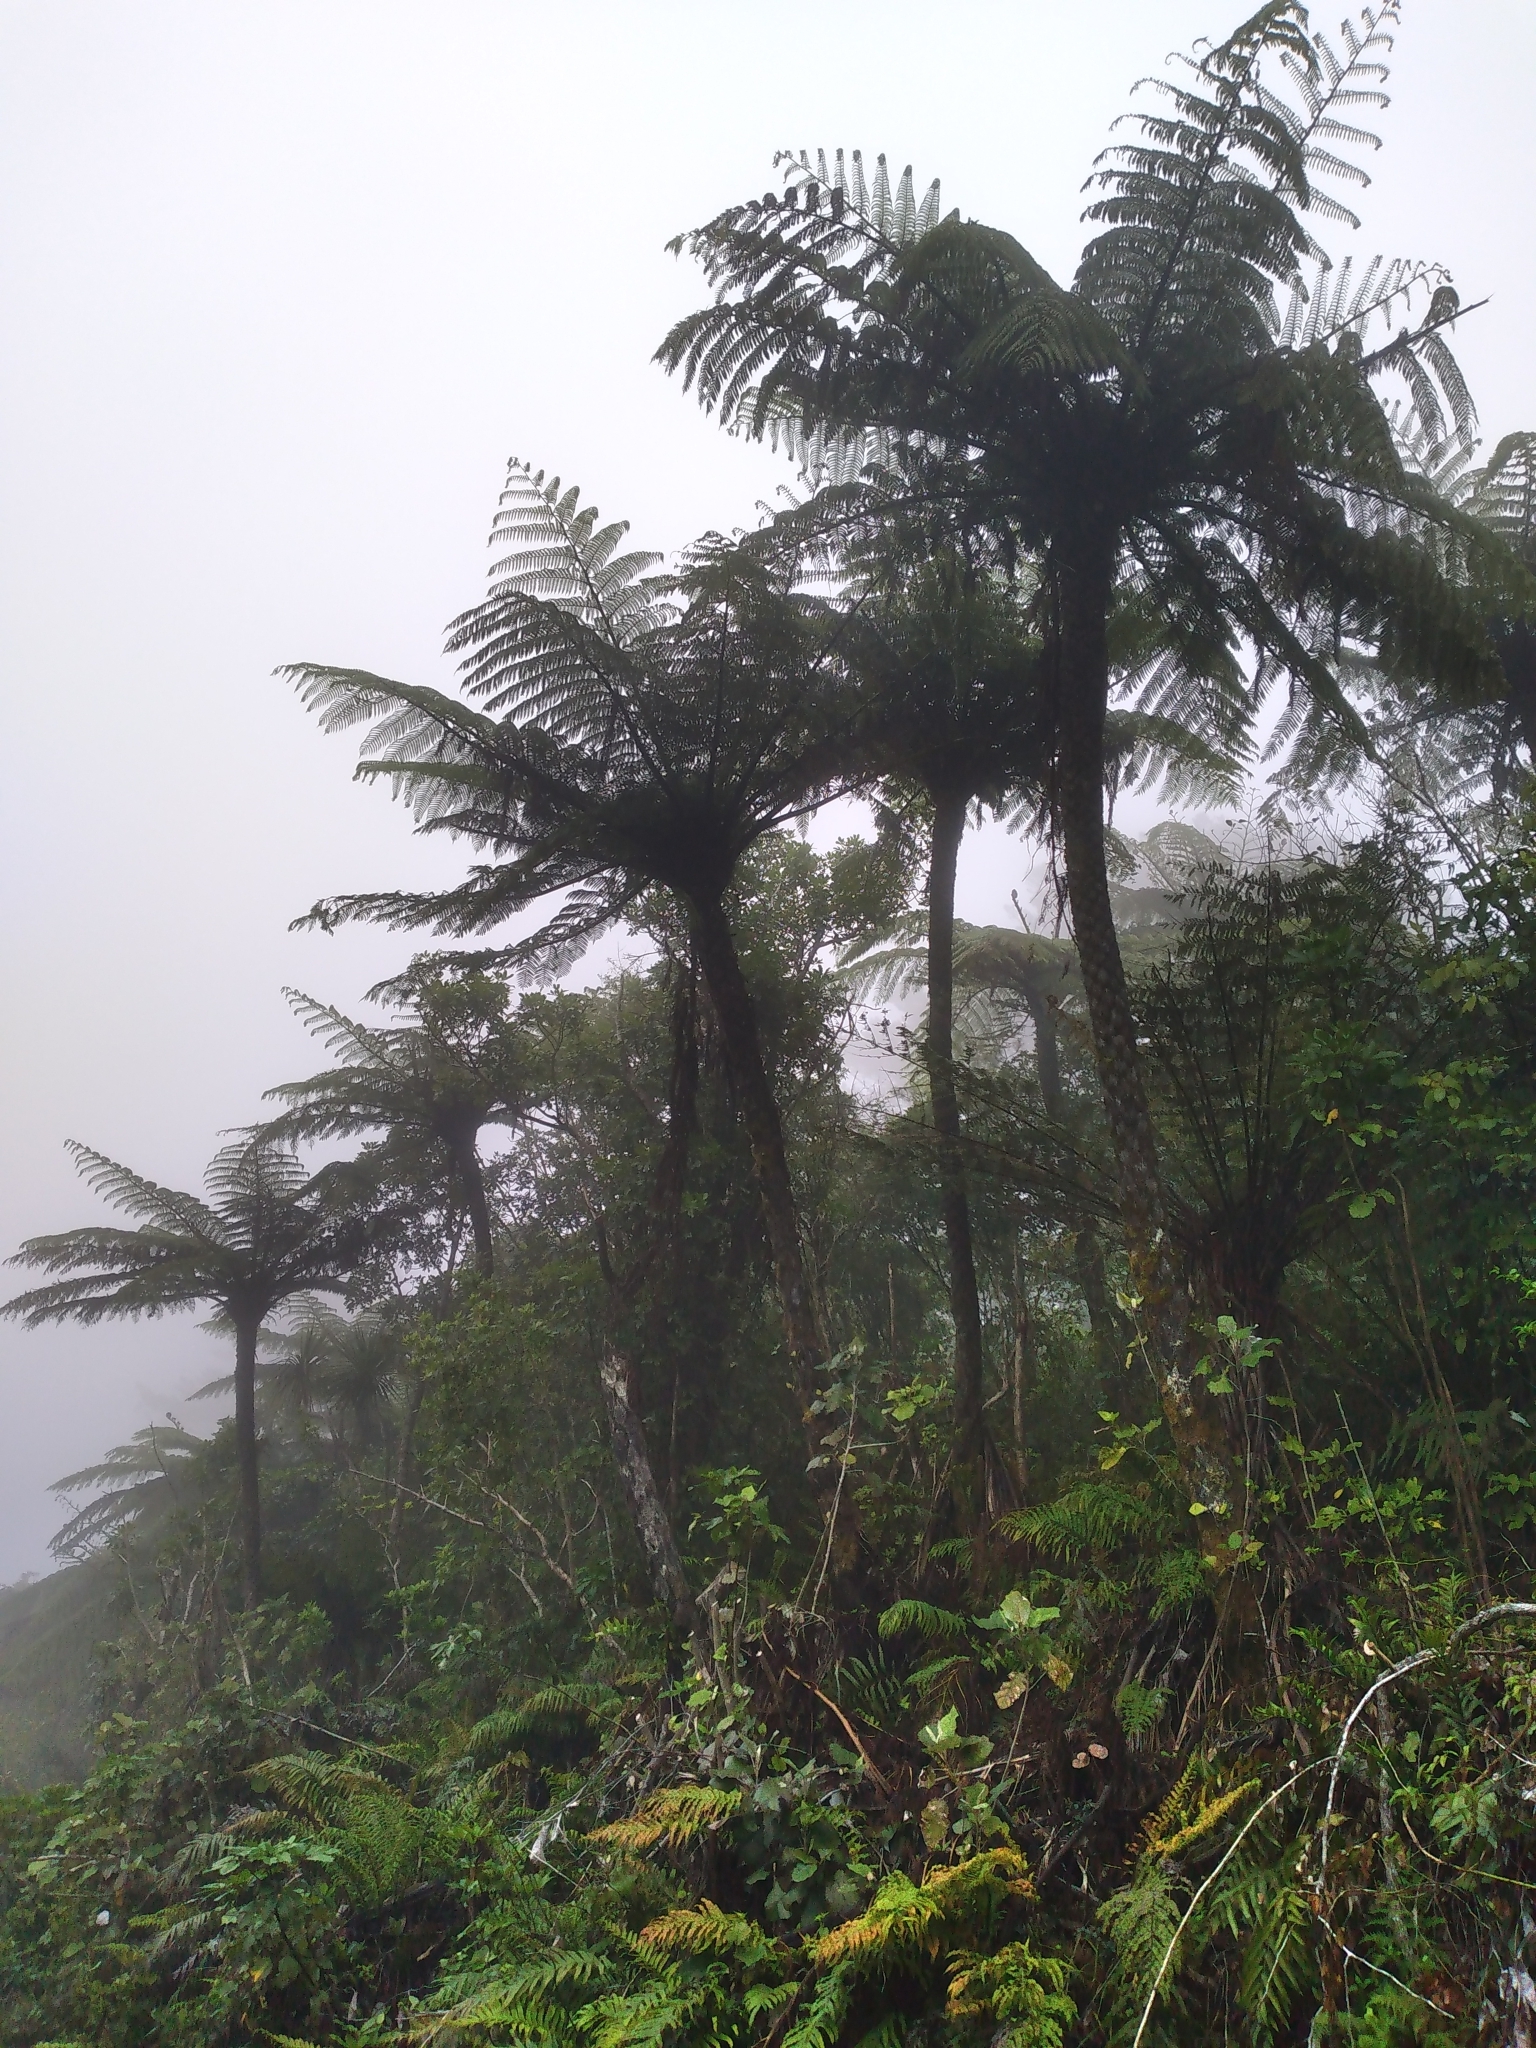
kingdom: Plantae
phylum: Tracheophyta
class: Polypodiopsida
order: Cyatheales
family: Cyatheaceae
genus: Sphaeropteris
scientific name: Sphaeropteris medullaris
